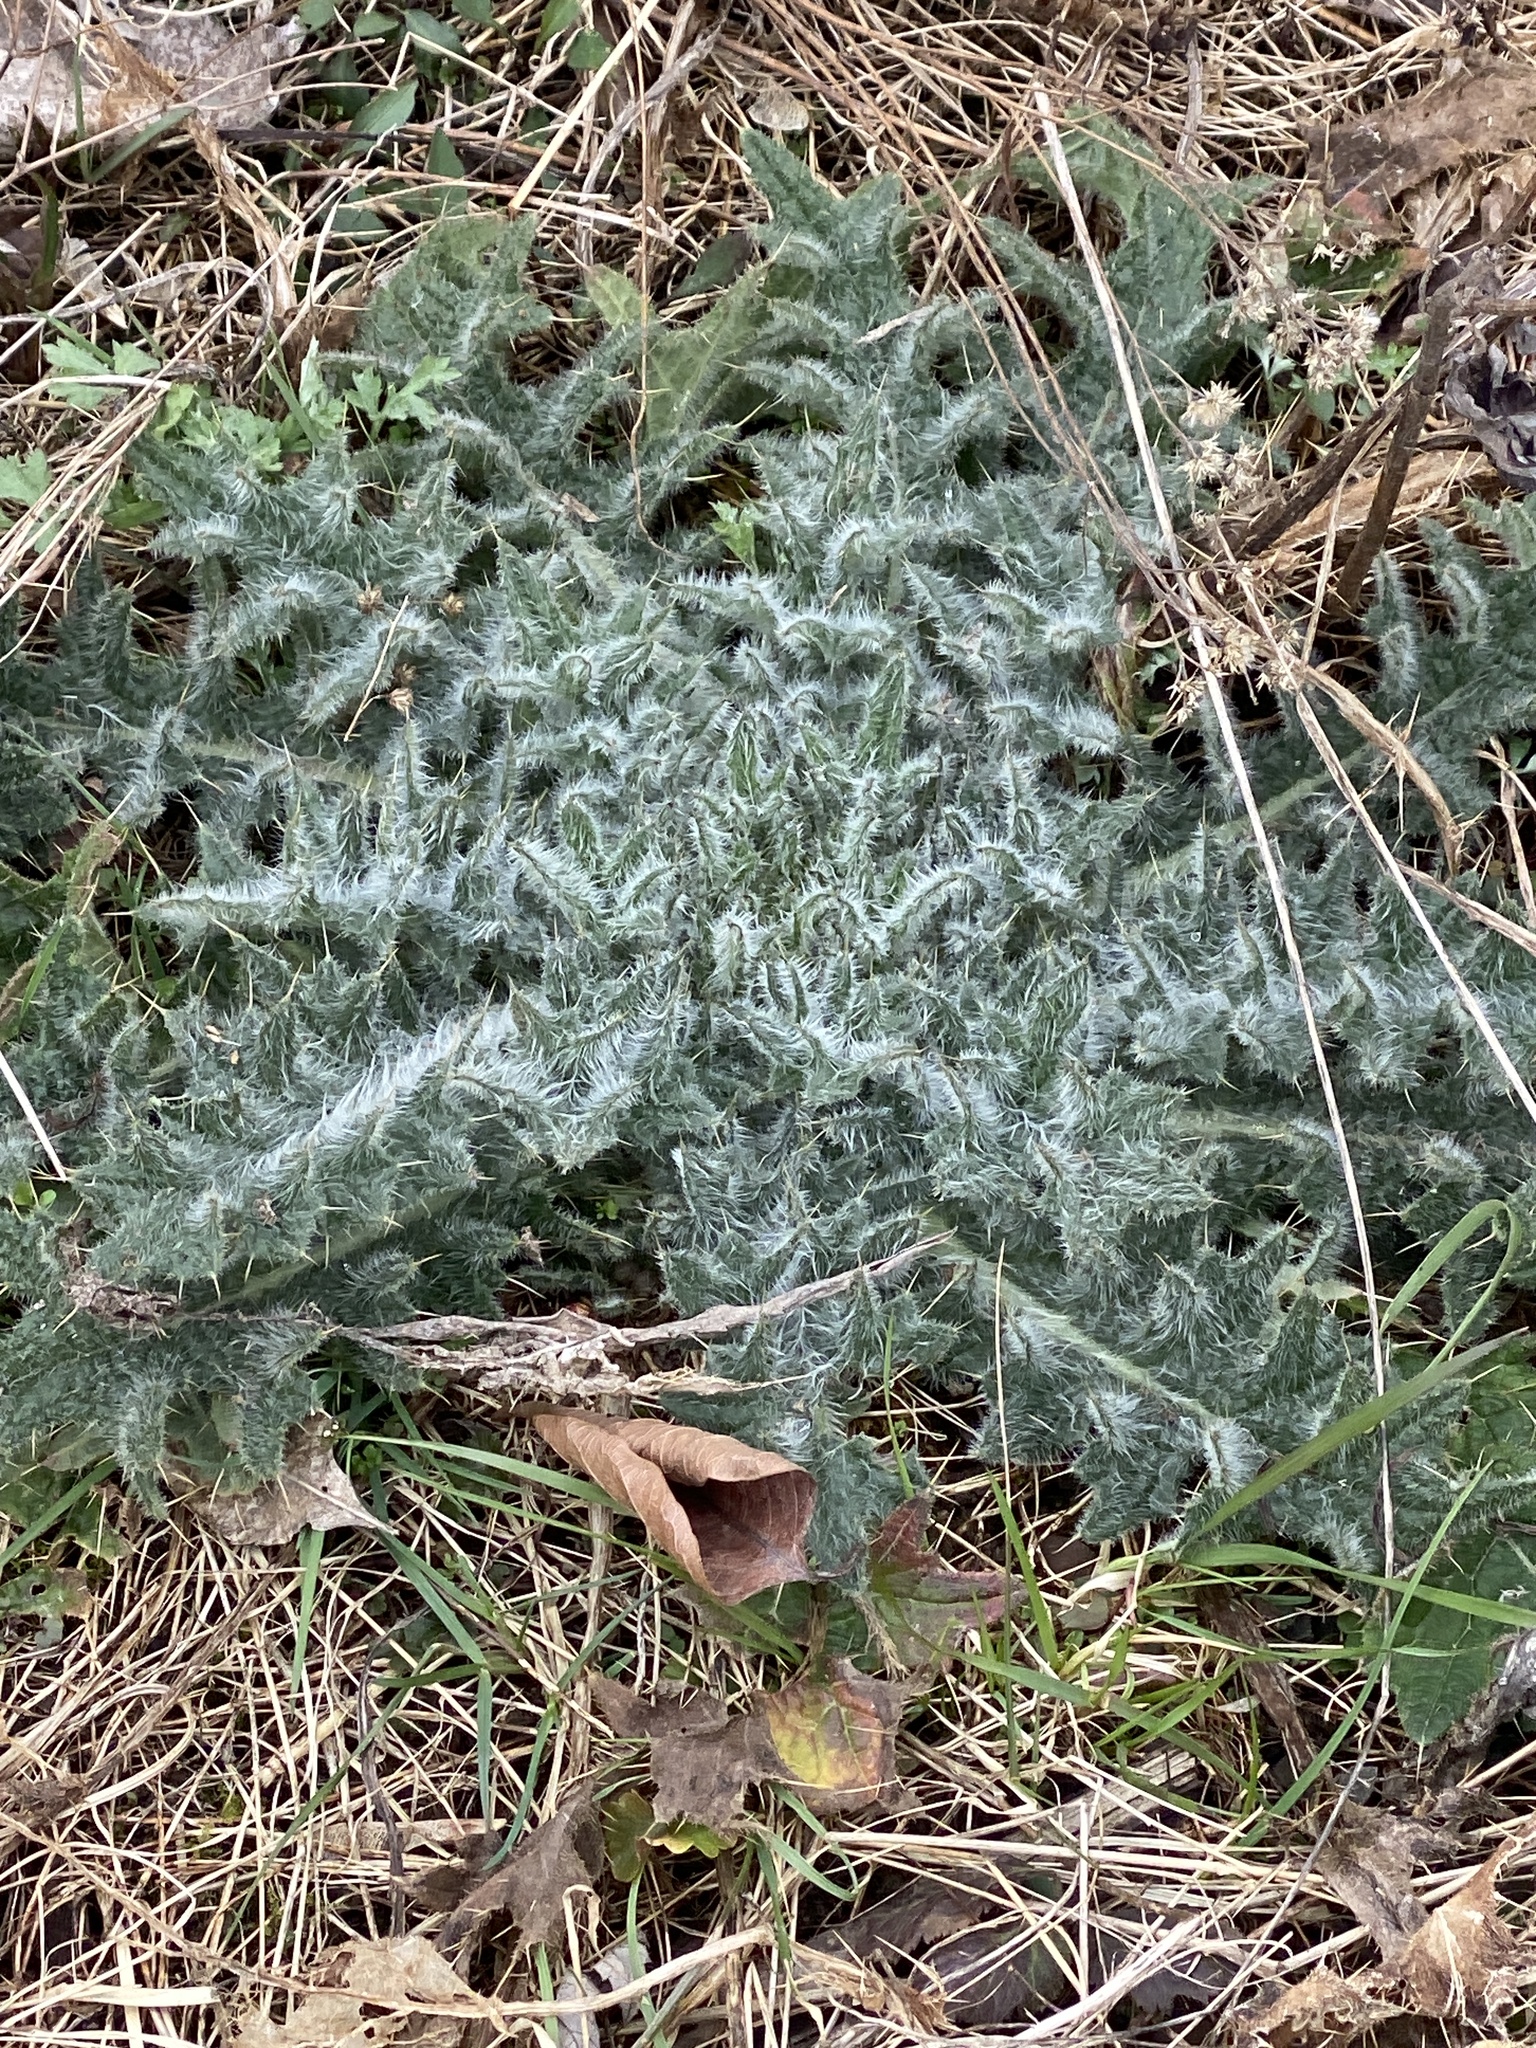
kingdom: Plantae
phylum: Tracheophyta
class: Magnoliopsida
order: Asterales
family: Asteraceae
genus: Cirsium
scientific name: Cirsium vulgare
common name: Bull thistle
